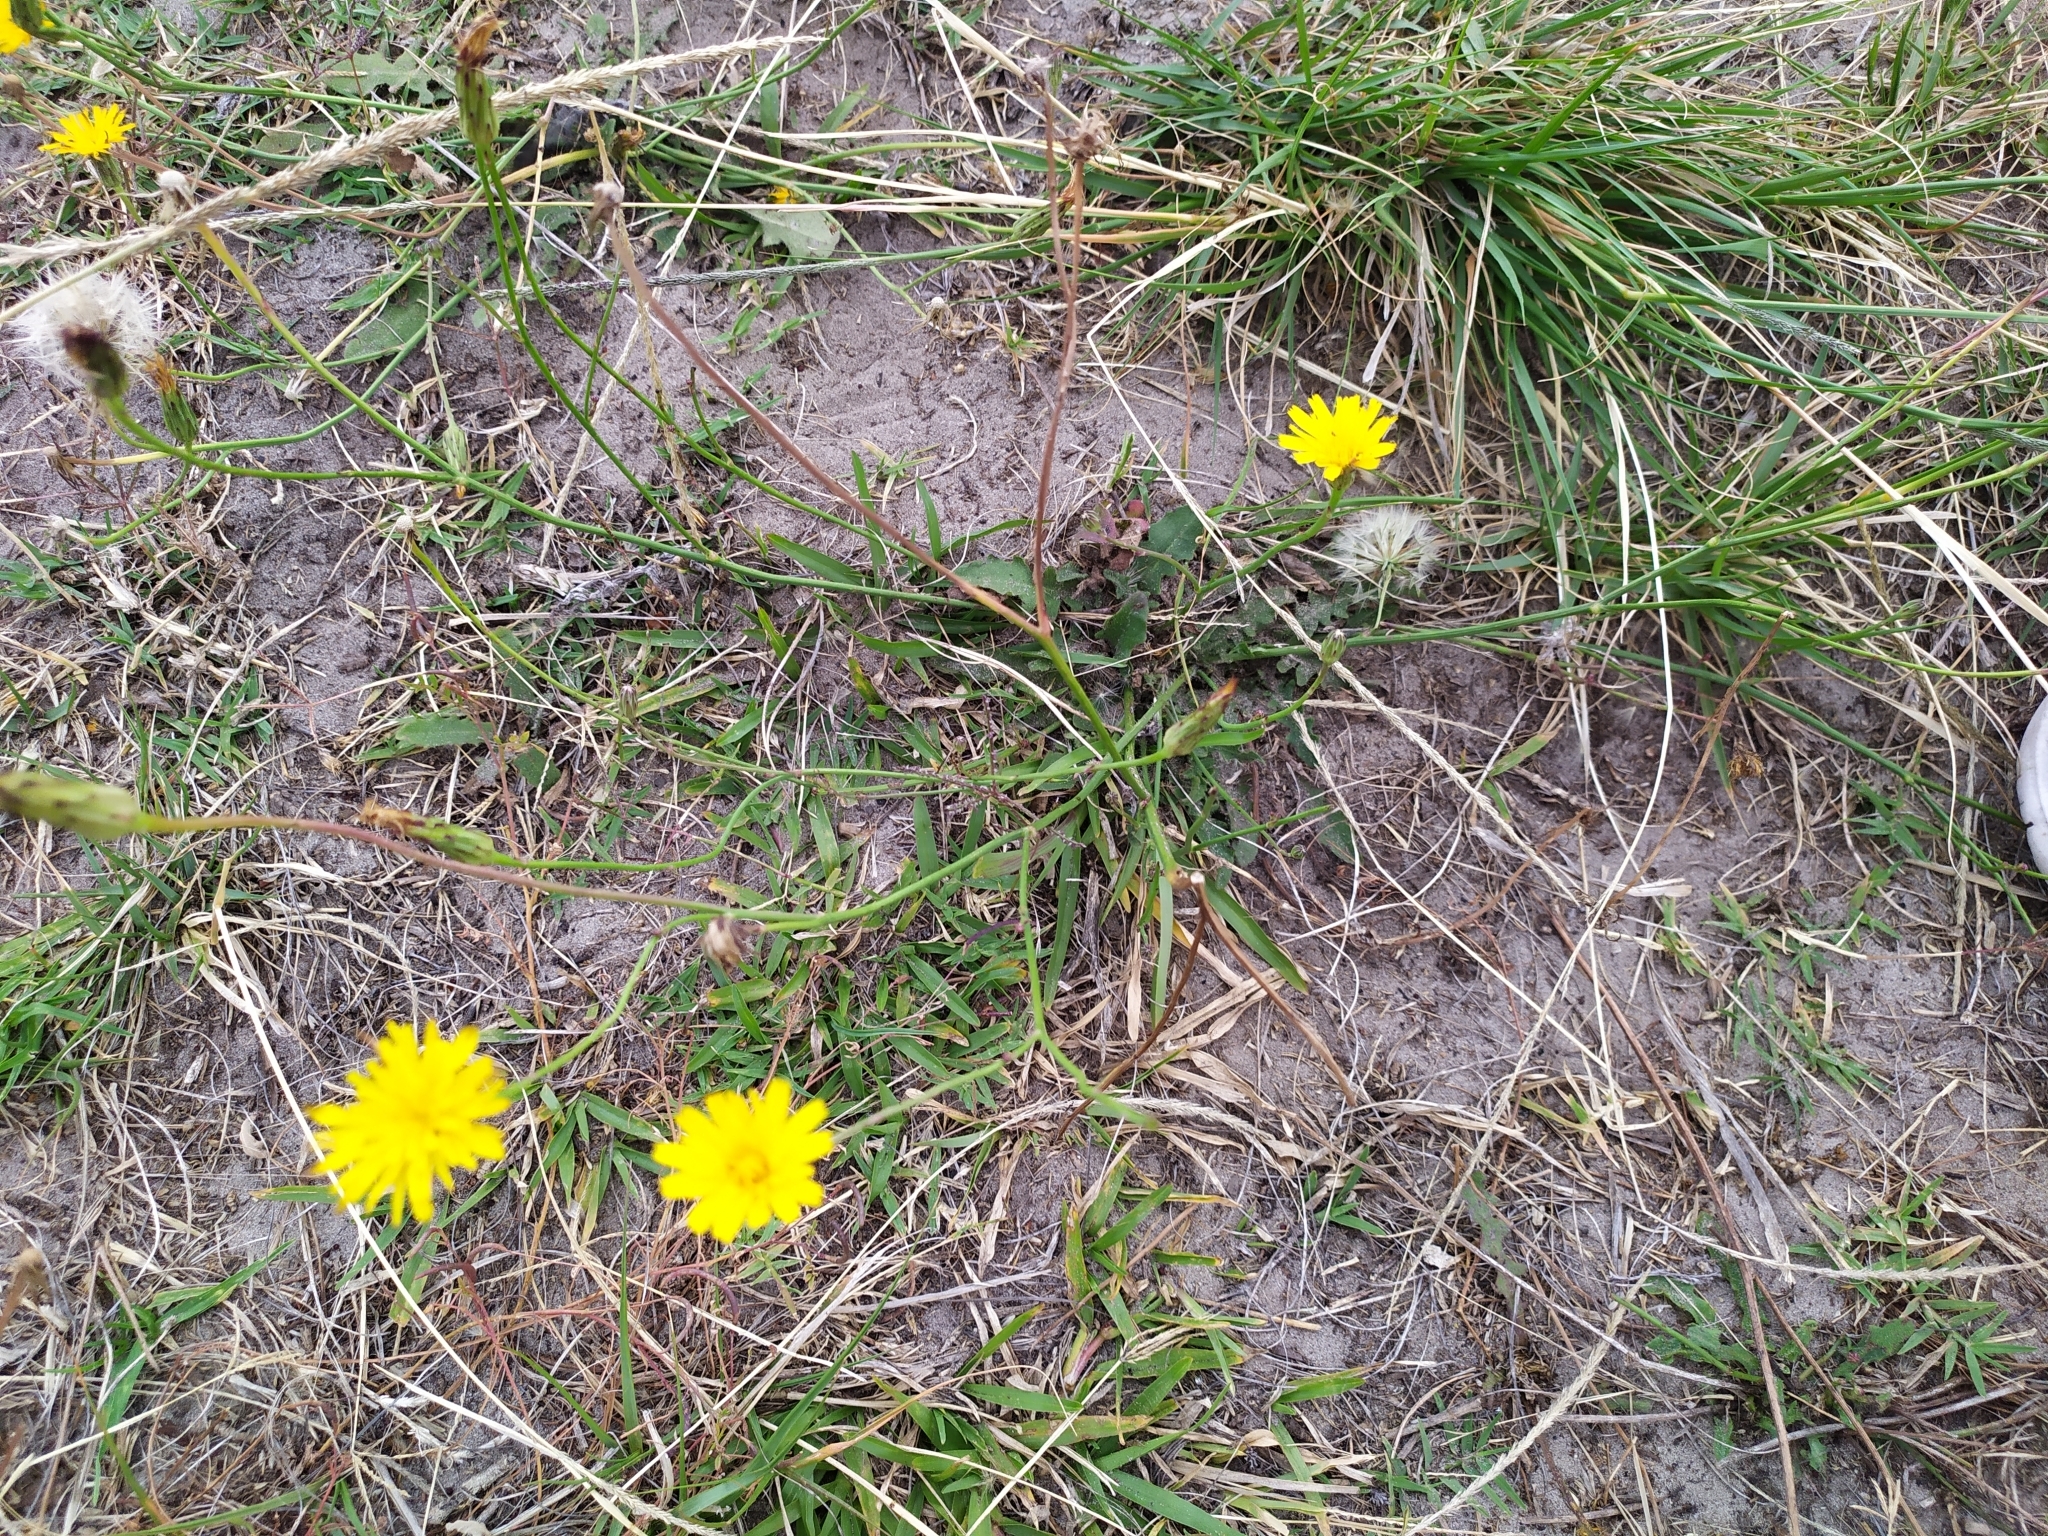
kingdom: Plantae
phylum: Tracheophyta
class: Magnoliopsida
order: Asterales
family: Asteraceae
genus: Hypochaeris
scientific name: Hypochaeris radicata
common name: Flatweed
